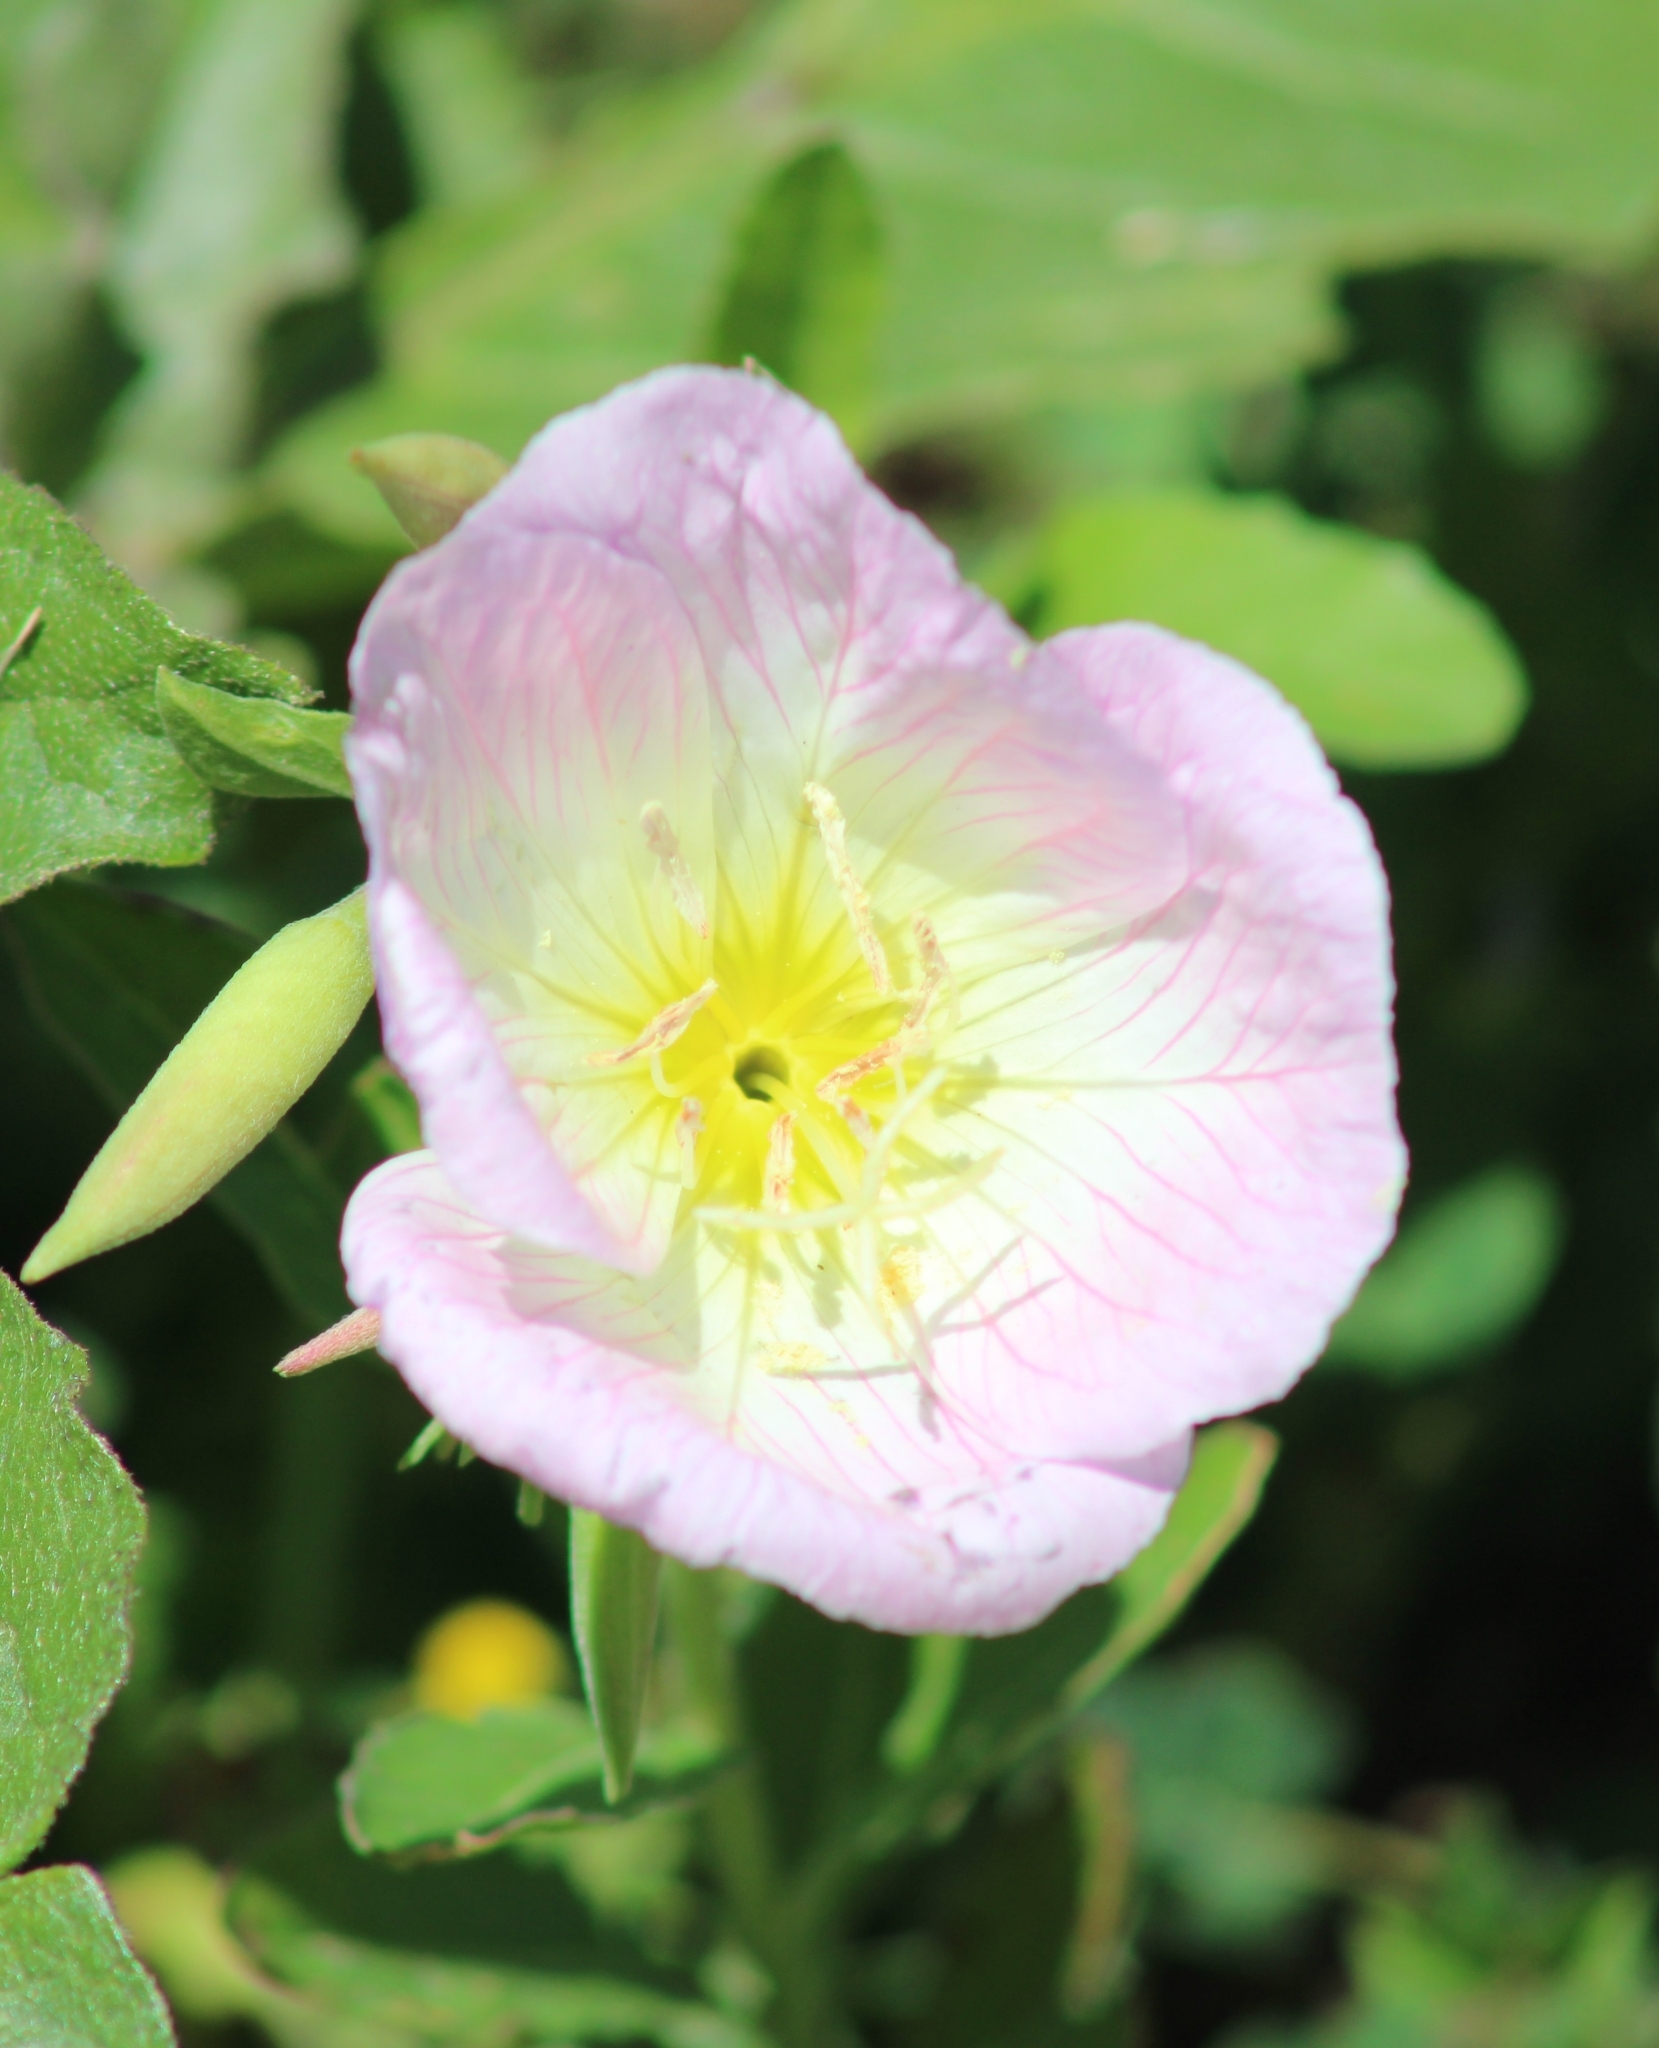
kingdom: Plantae
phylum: Tracheophyta
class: Magnoliopsida
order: Myrtales
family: Onagraceae
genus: Oenothera
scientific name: Oenothera speciosa
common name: White evening-primrose
